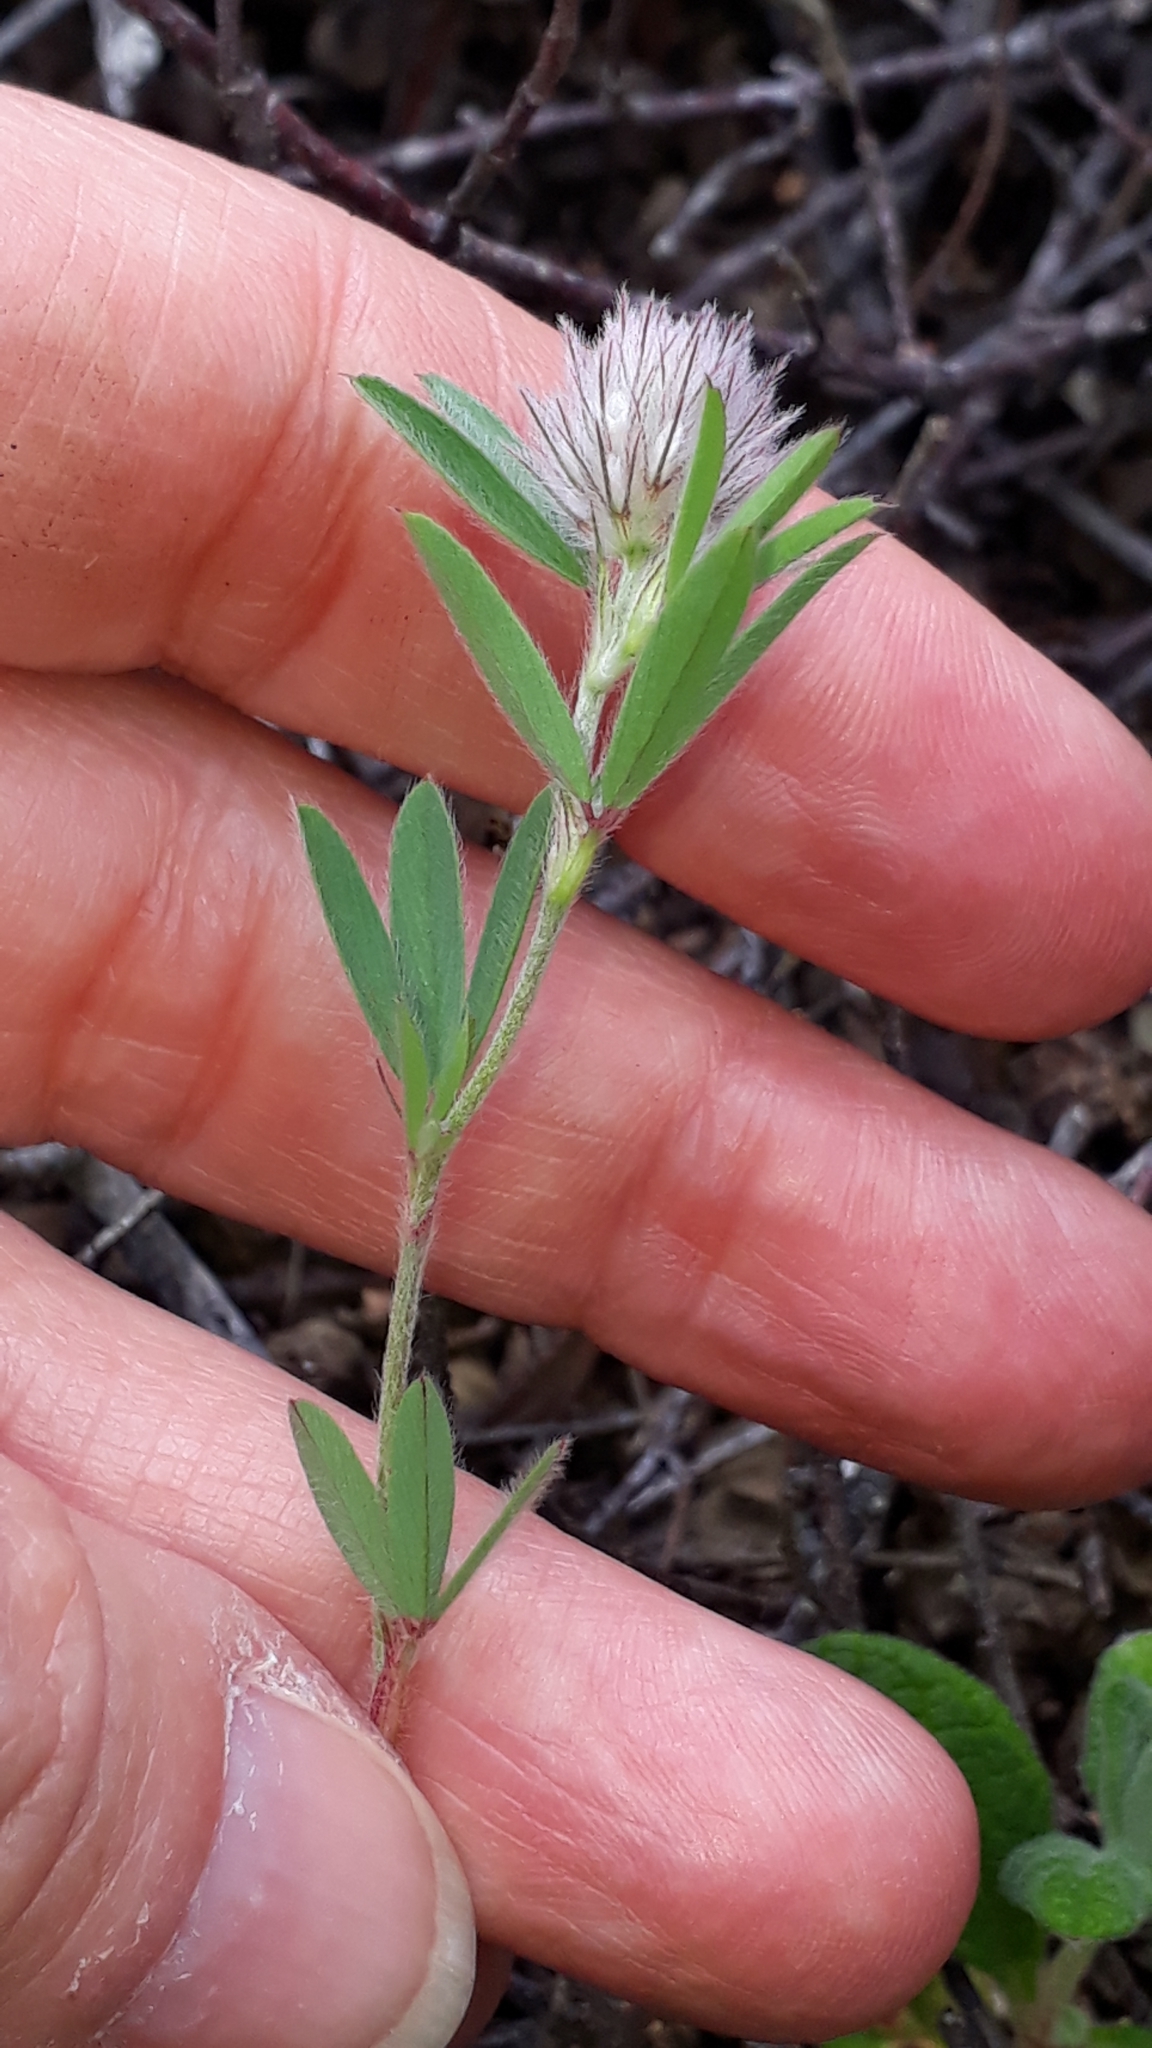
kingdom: Plantae
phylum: Tracheophyta
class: Magnoliopsida
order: Fabales
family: Fabaceae
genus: Trifolium
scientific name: Trifolium arvense
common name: Hare's-foot clover
